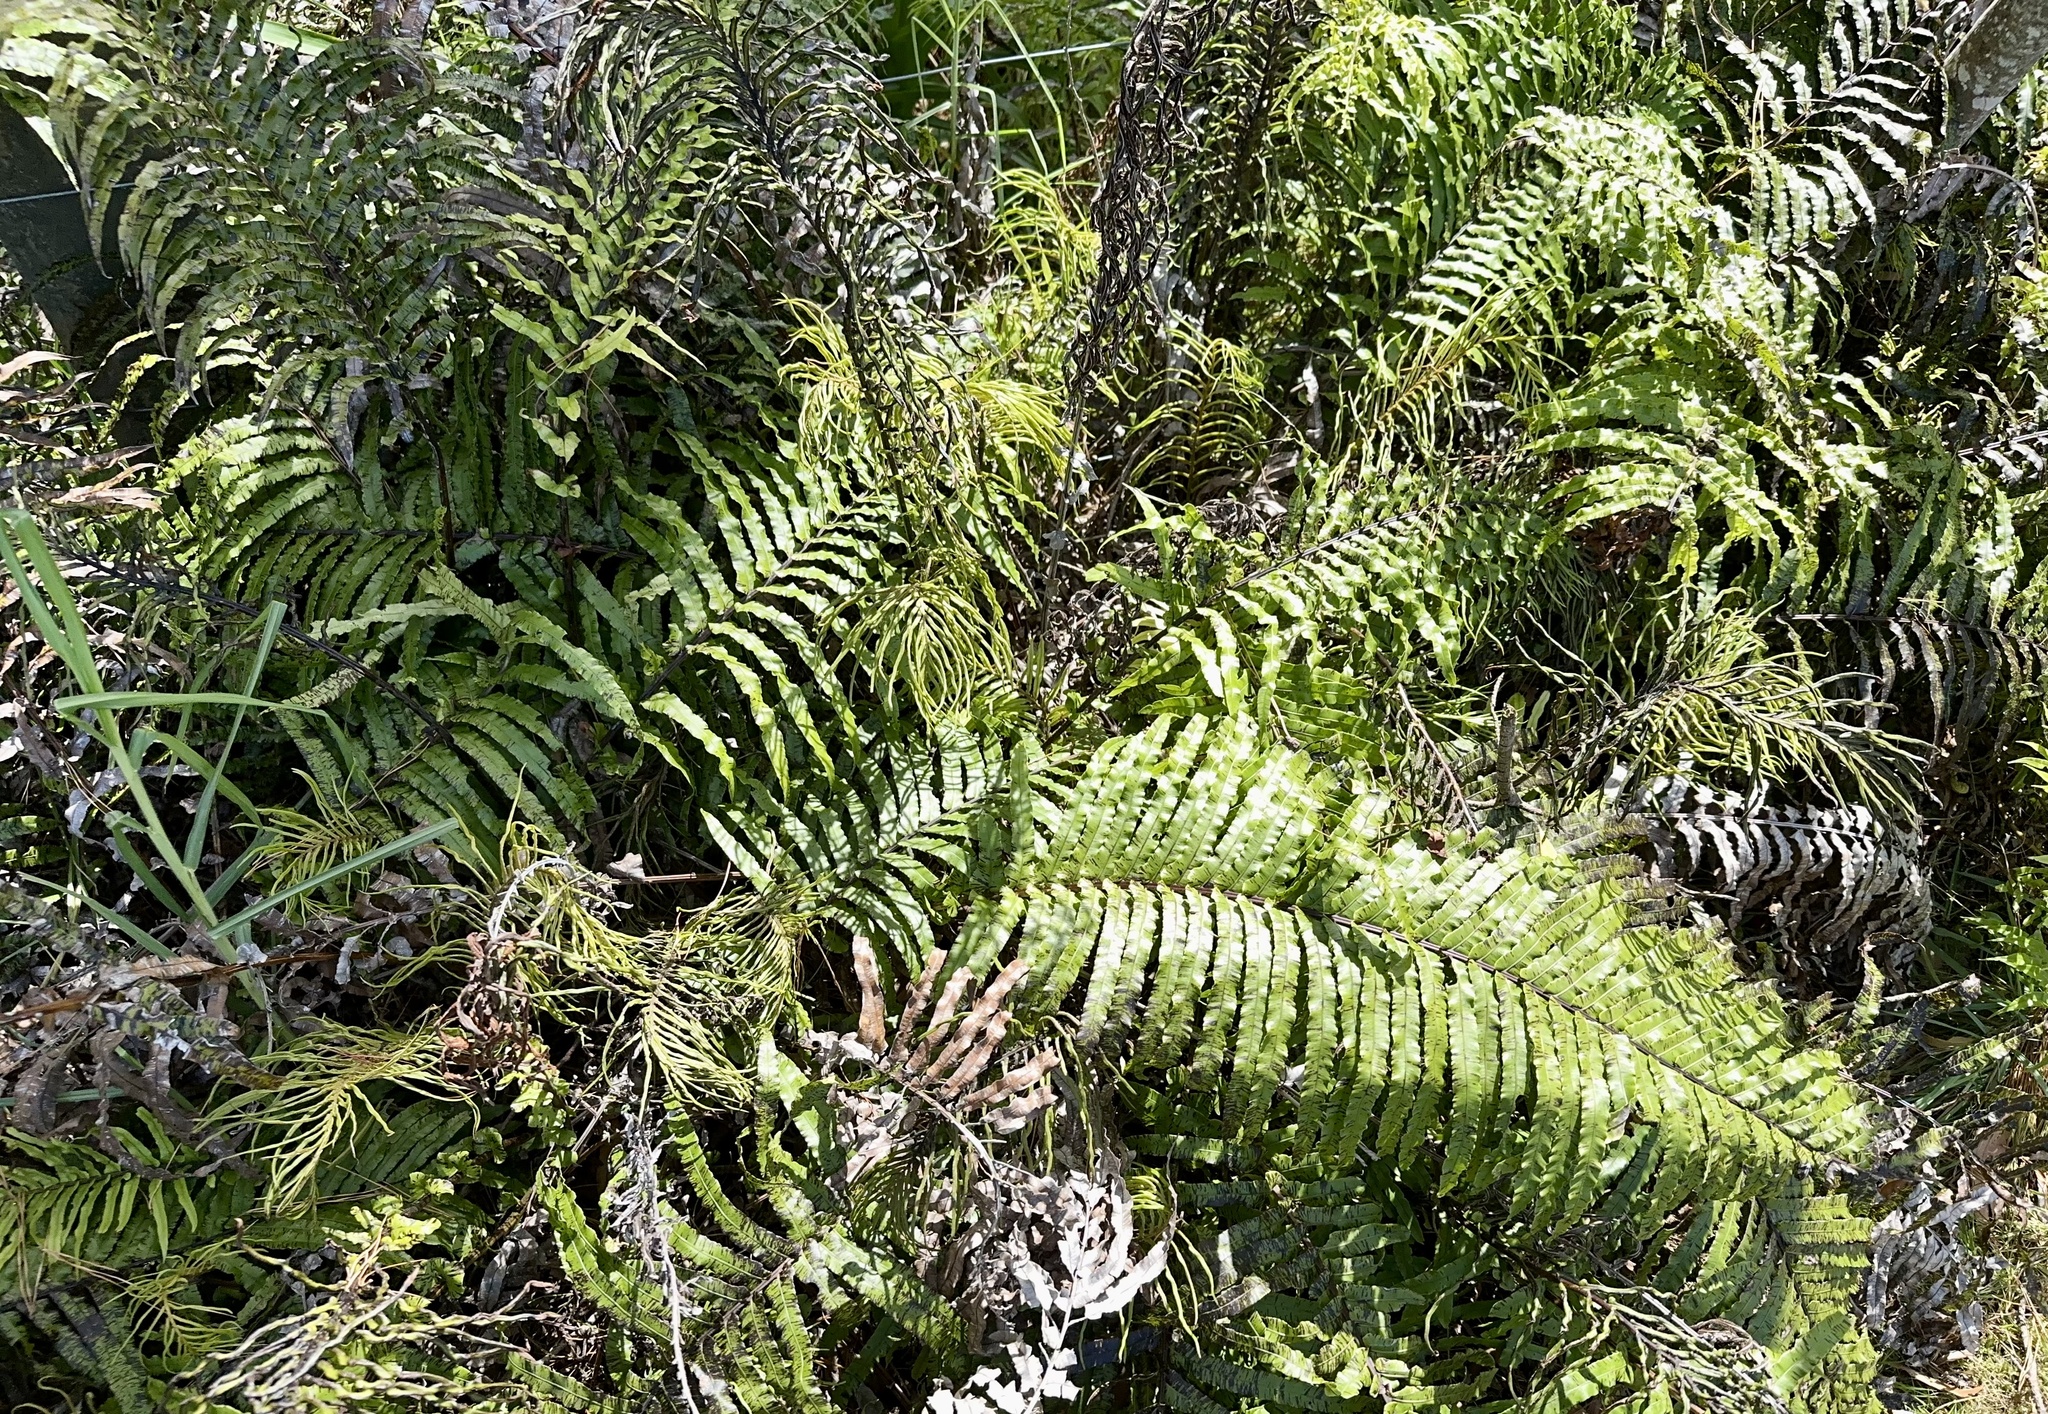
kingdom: Plantae
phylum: Tracheophyta
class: Polypodiopsida
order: Polypodiales
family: Blechnaceae
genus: Parablechnum
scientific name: Parablechnum novae-zelandiae
